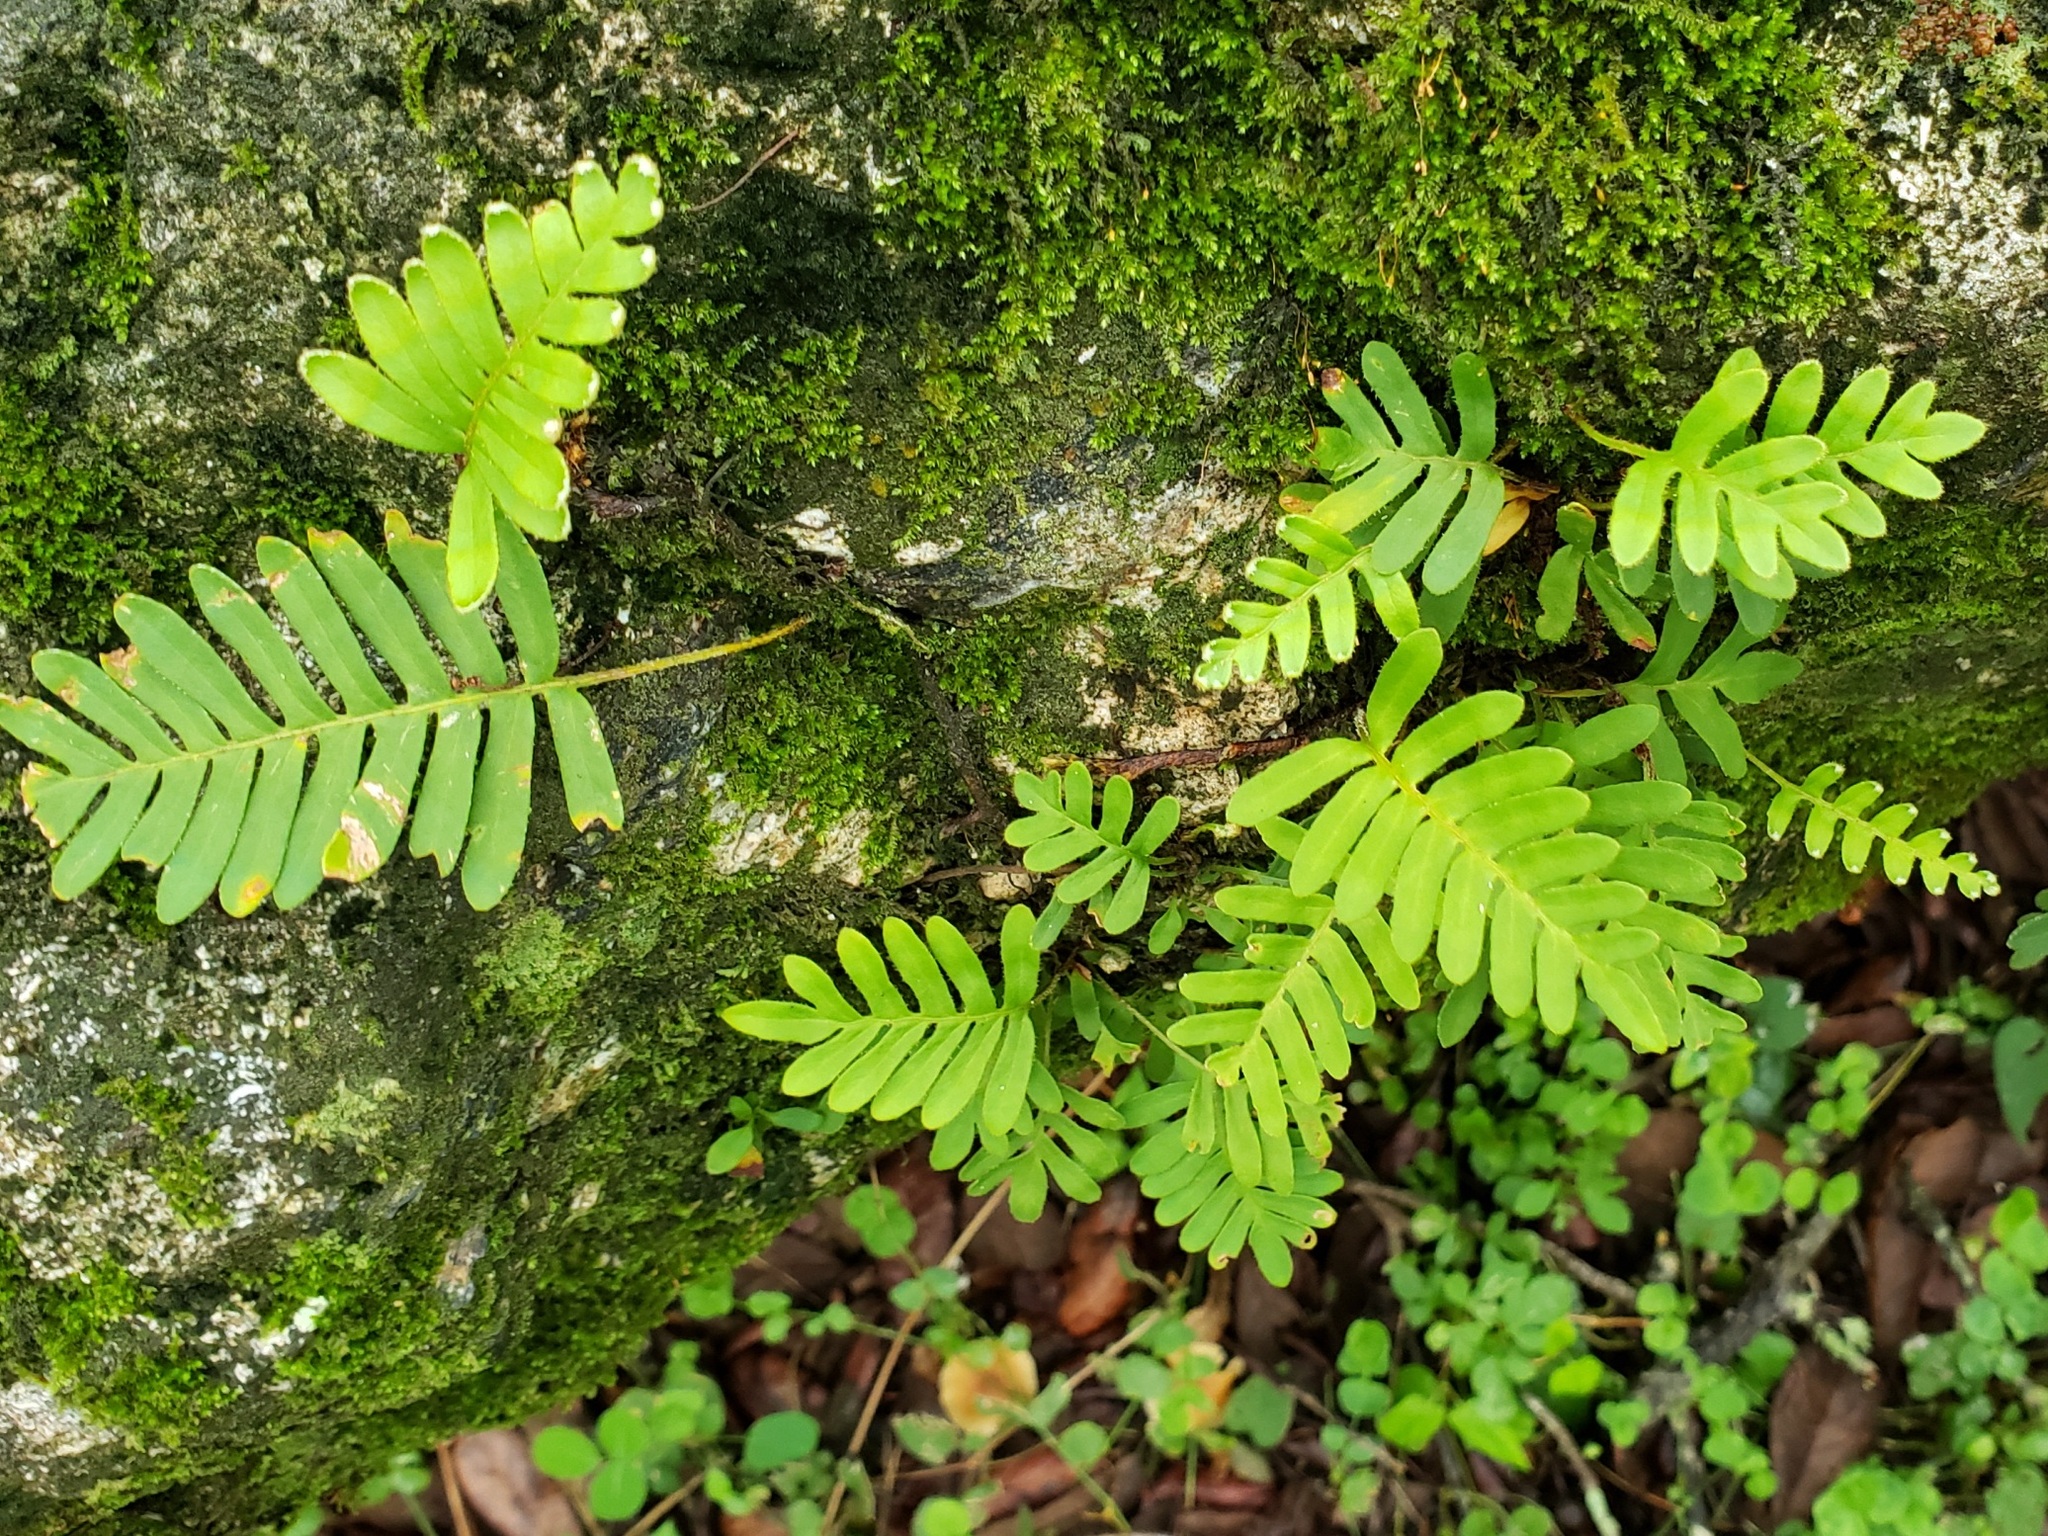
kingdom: Plantae
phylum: Tracheophyta
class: Polypodiopsida
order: Polypodiales
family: Polypodiaceae
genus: Pleopeltis
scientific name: Pleopeltis michauxiana
